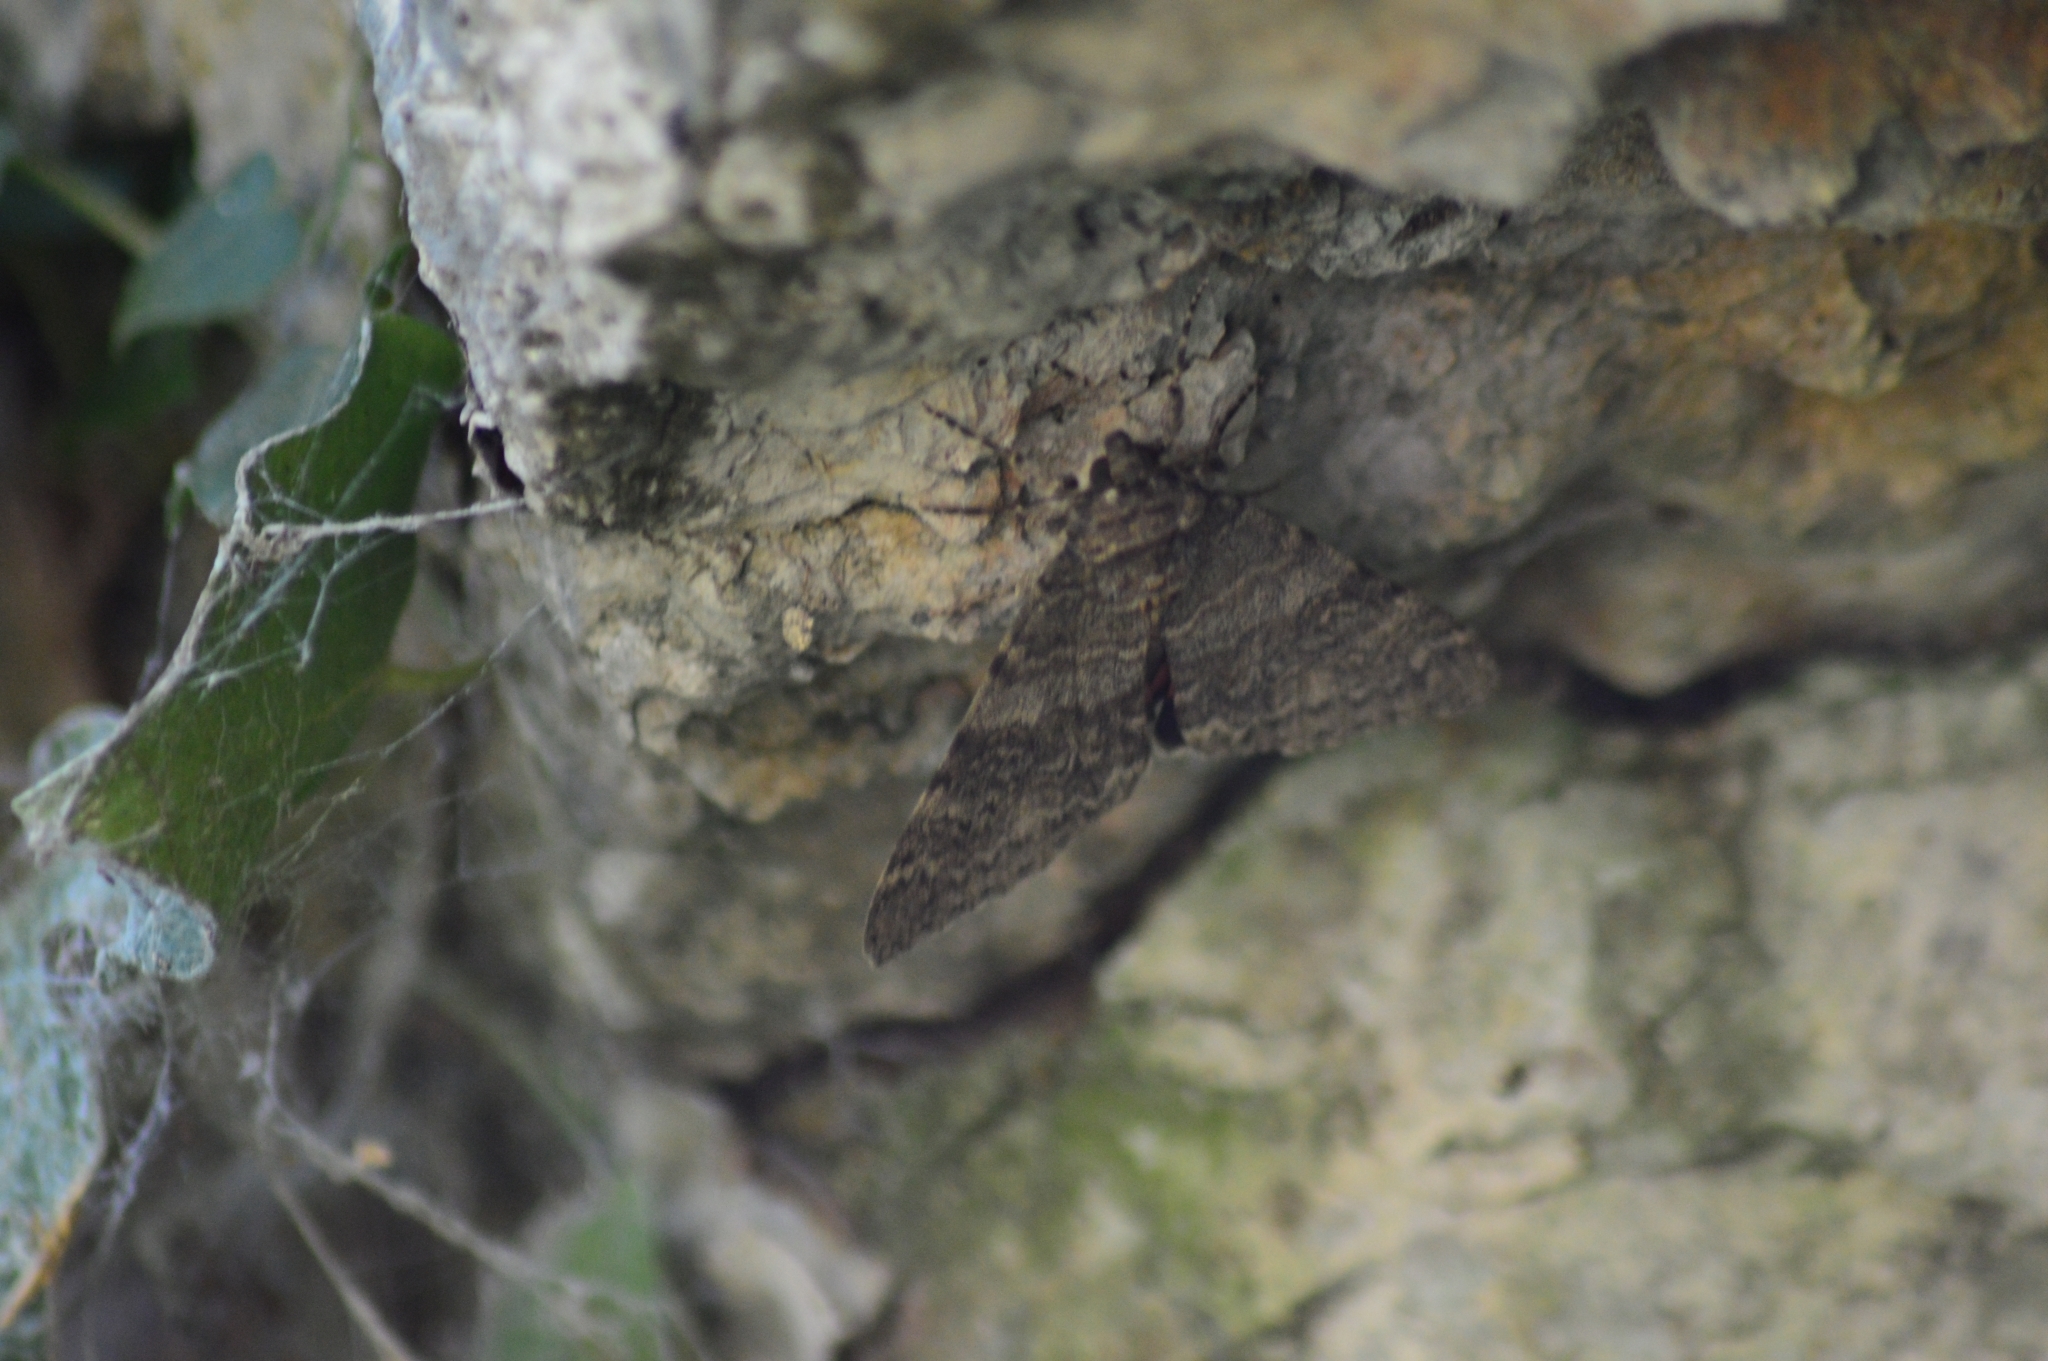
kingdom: Animalia
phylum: Arthropoda
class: Insecta
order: Lepidoptera
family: Erebidae
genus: Catocala
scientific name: Catocala nupta
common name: Red underwing
